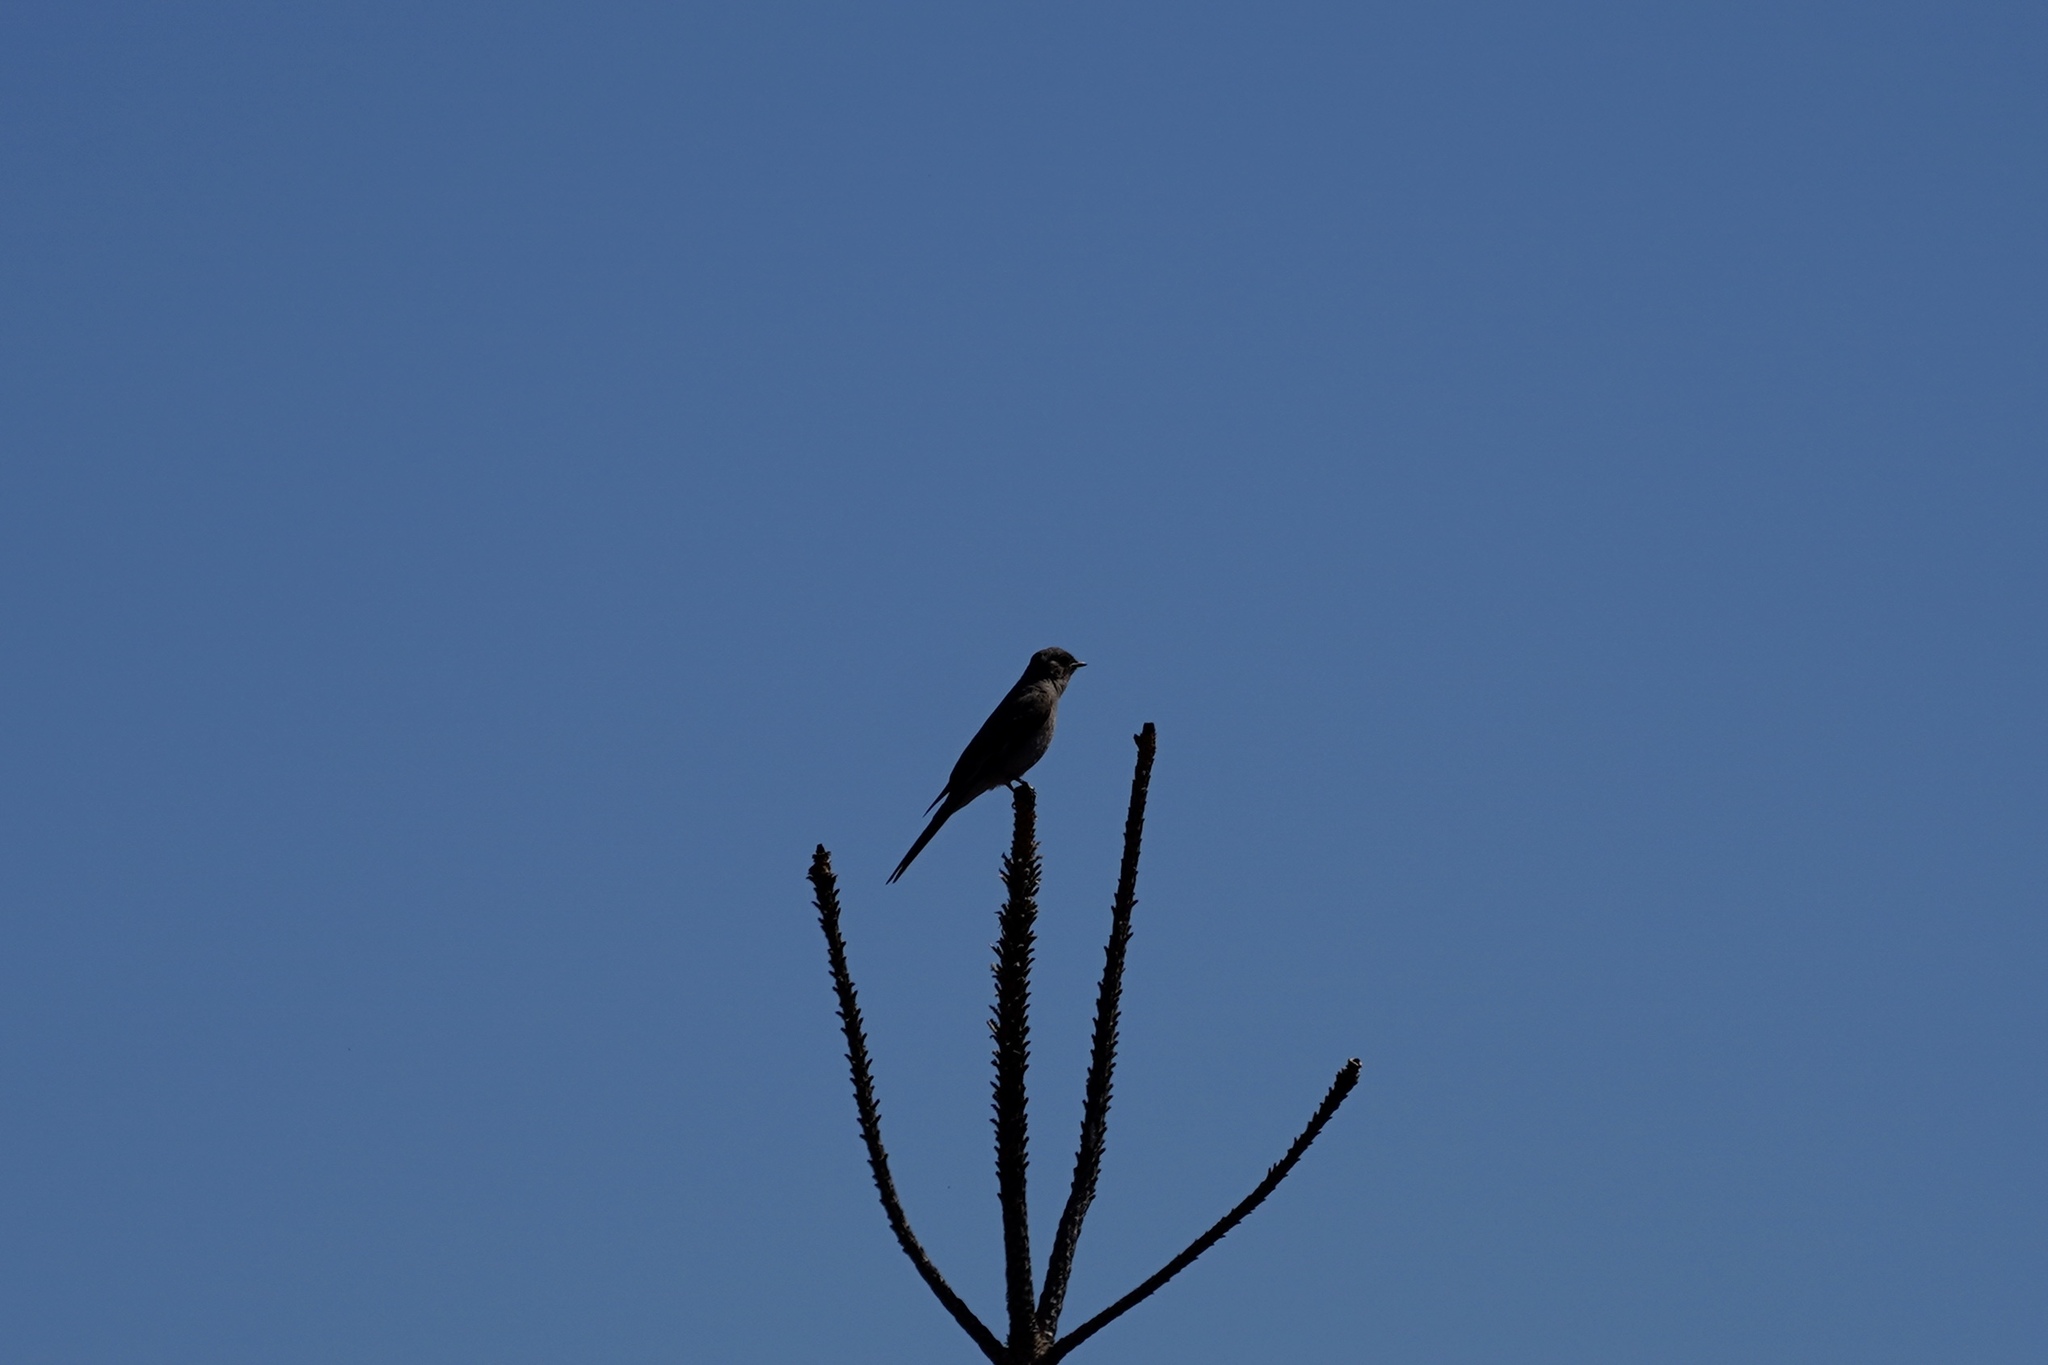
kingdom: Animalia
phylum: Chordata
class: Aves
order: Passeriformes
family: Turdidae
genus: Myadestes
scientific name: Myadestes townsendi
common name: Townsend's solitaire
